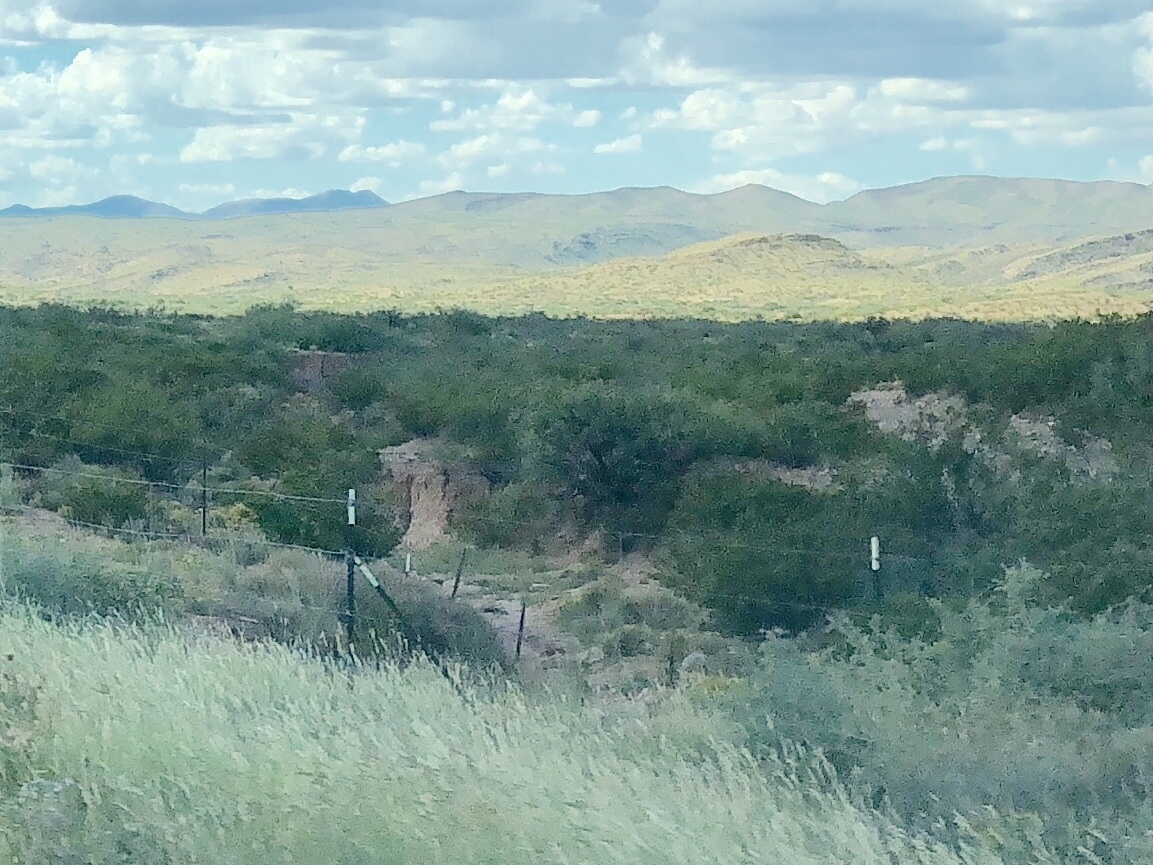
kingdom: Plantae
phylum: Tracheophyta
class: Magnoliopsida
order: Zygophyllales
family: Zygophyllaceae
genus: Larrea
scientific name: Larrea tridentata
